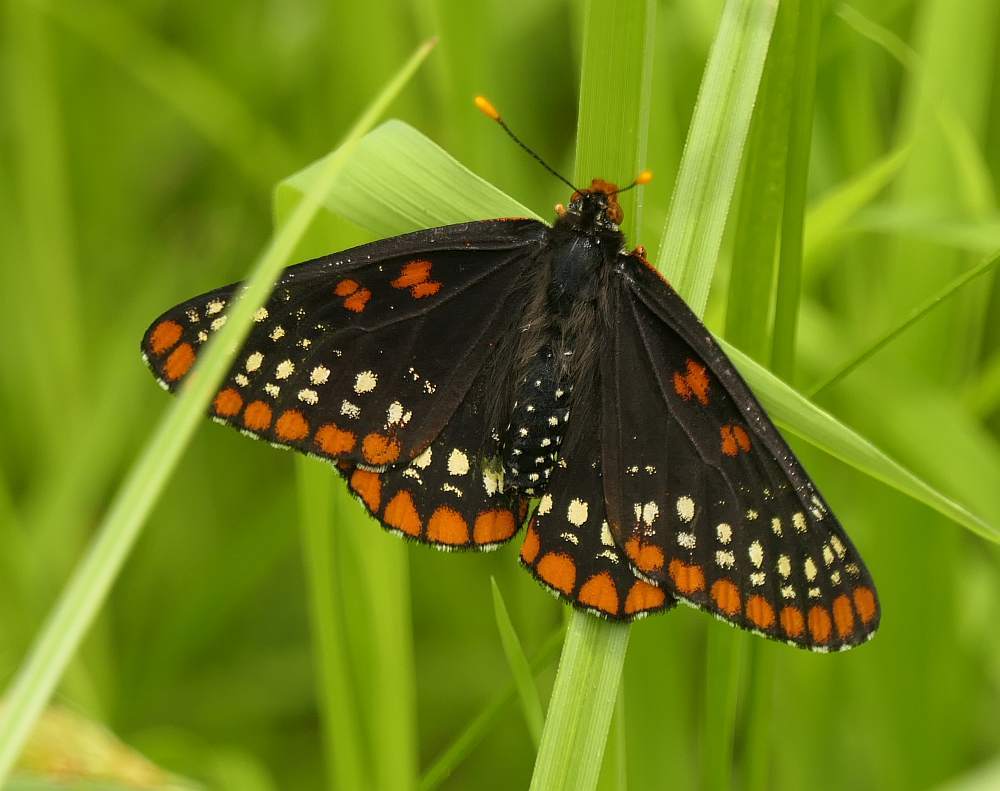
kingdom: Animalia
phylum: Arthropoda
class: Insecta
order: Lepidoptera
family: Nymphalidae
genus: Euphydryas
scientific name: Euphydryas phaeton
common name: Baltimore checkerspot
